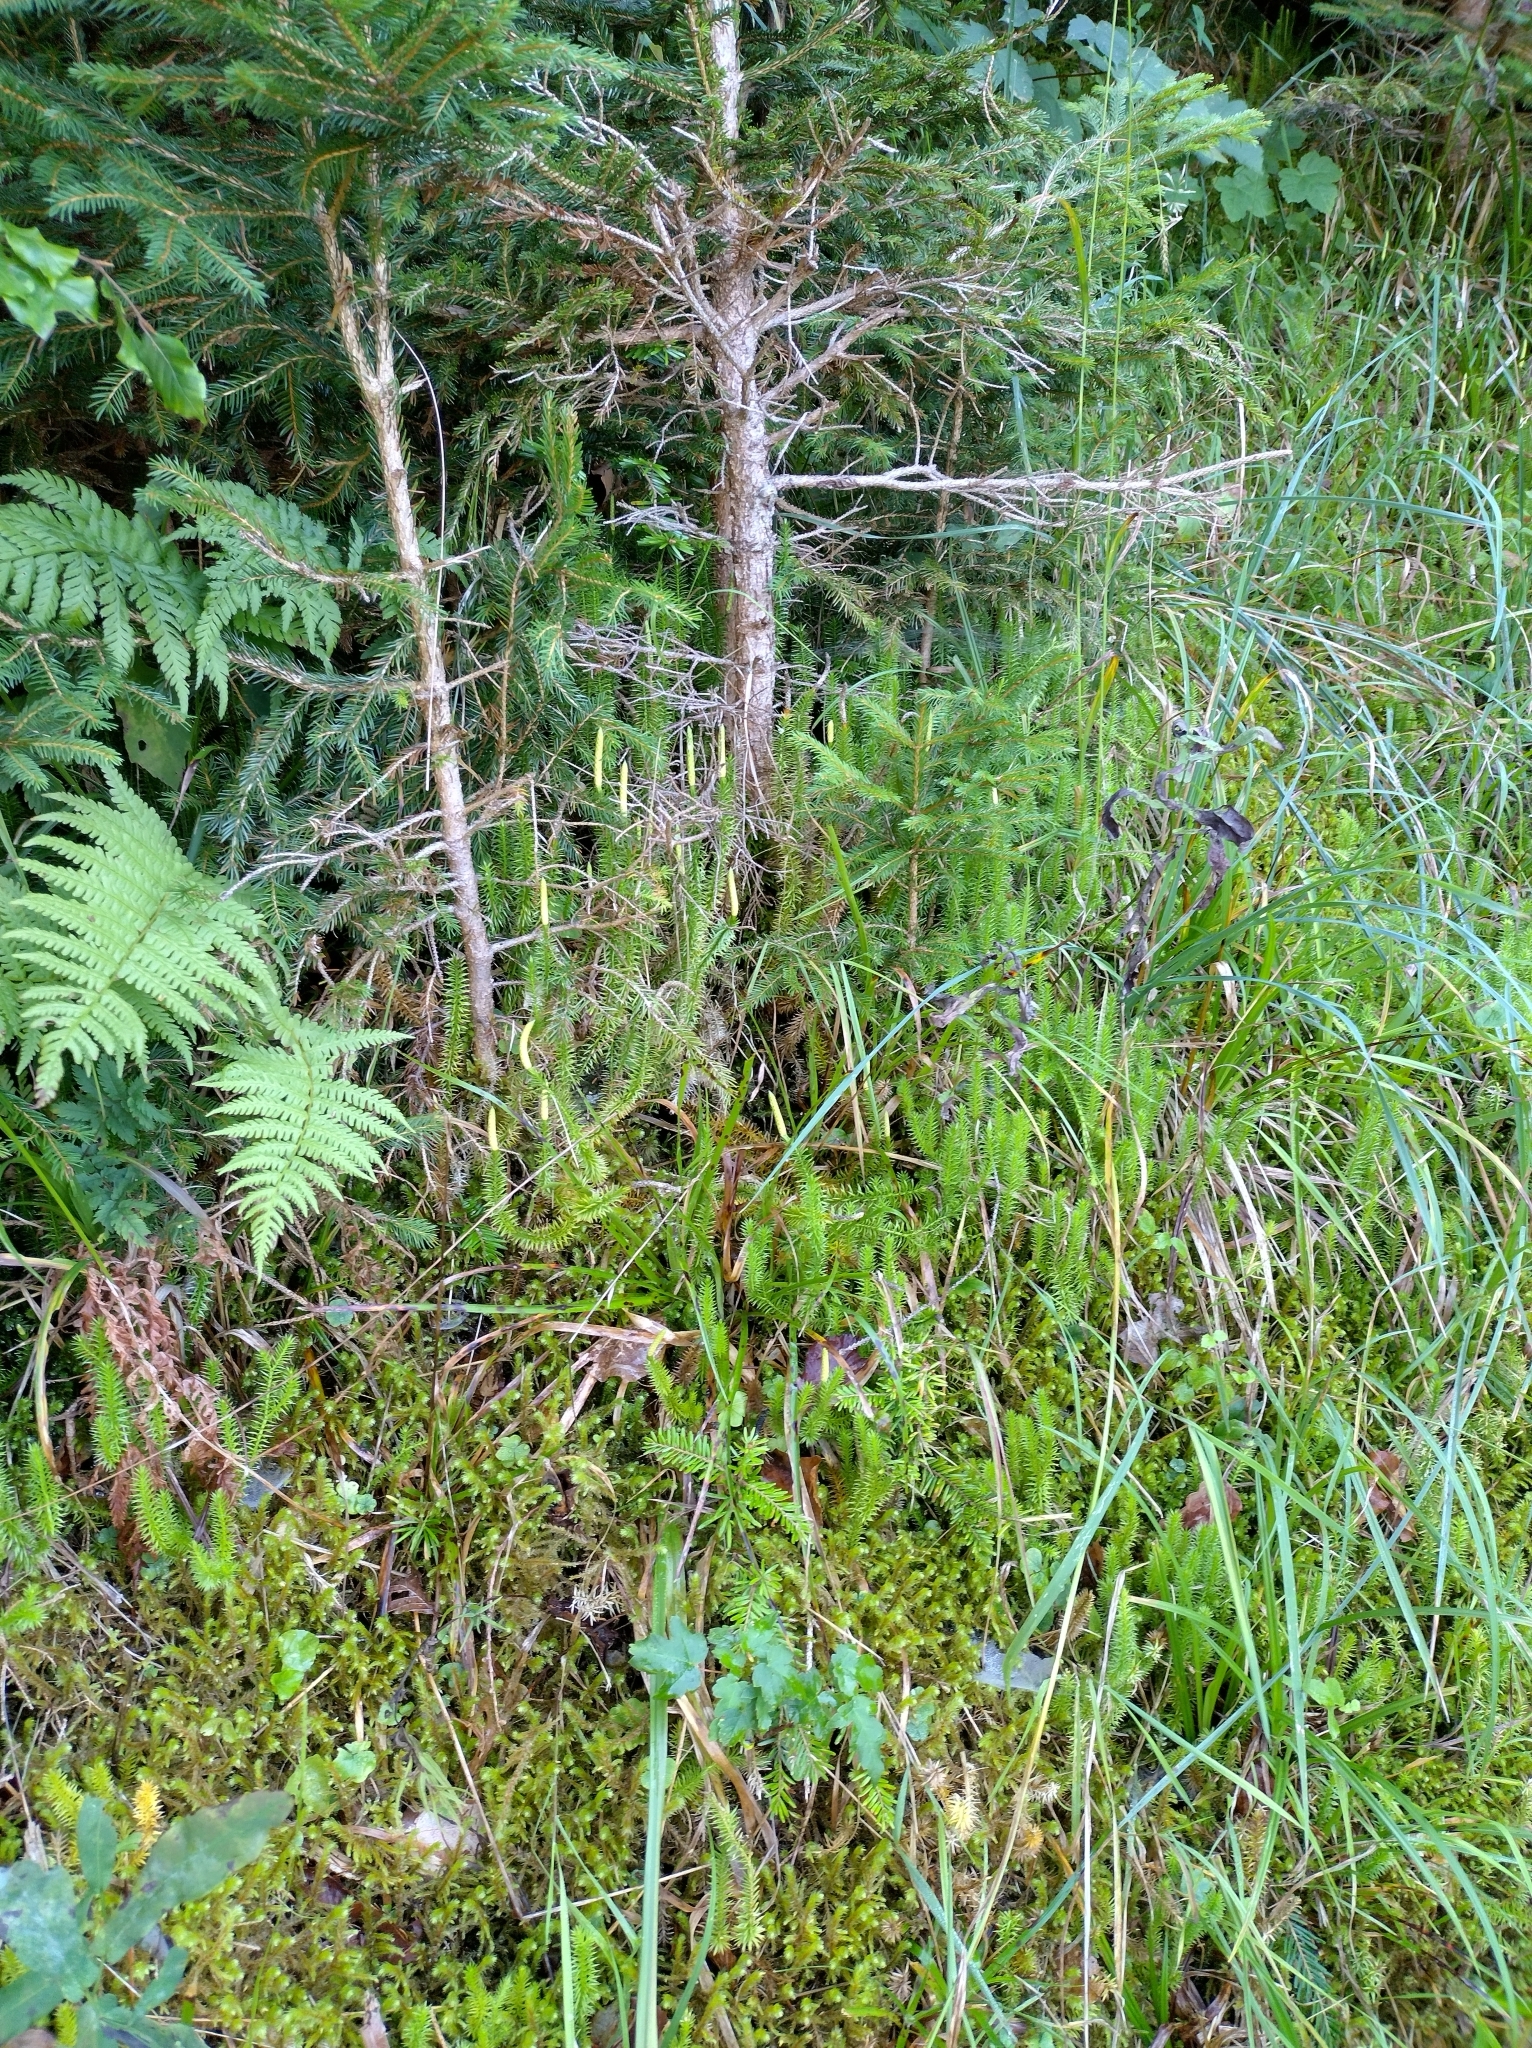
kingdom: Plantae
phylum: Tracheophyta
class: Lycopodiopsida
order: Lycopodiales
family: Lycopodiaceae
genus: Spinulum
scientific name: Spinulum annotinum
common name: Interrupted club-moss
